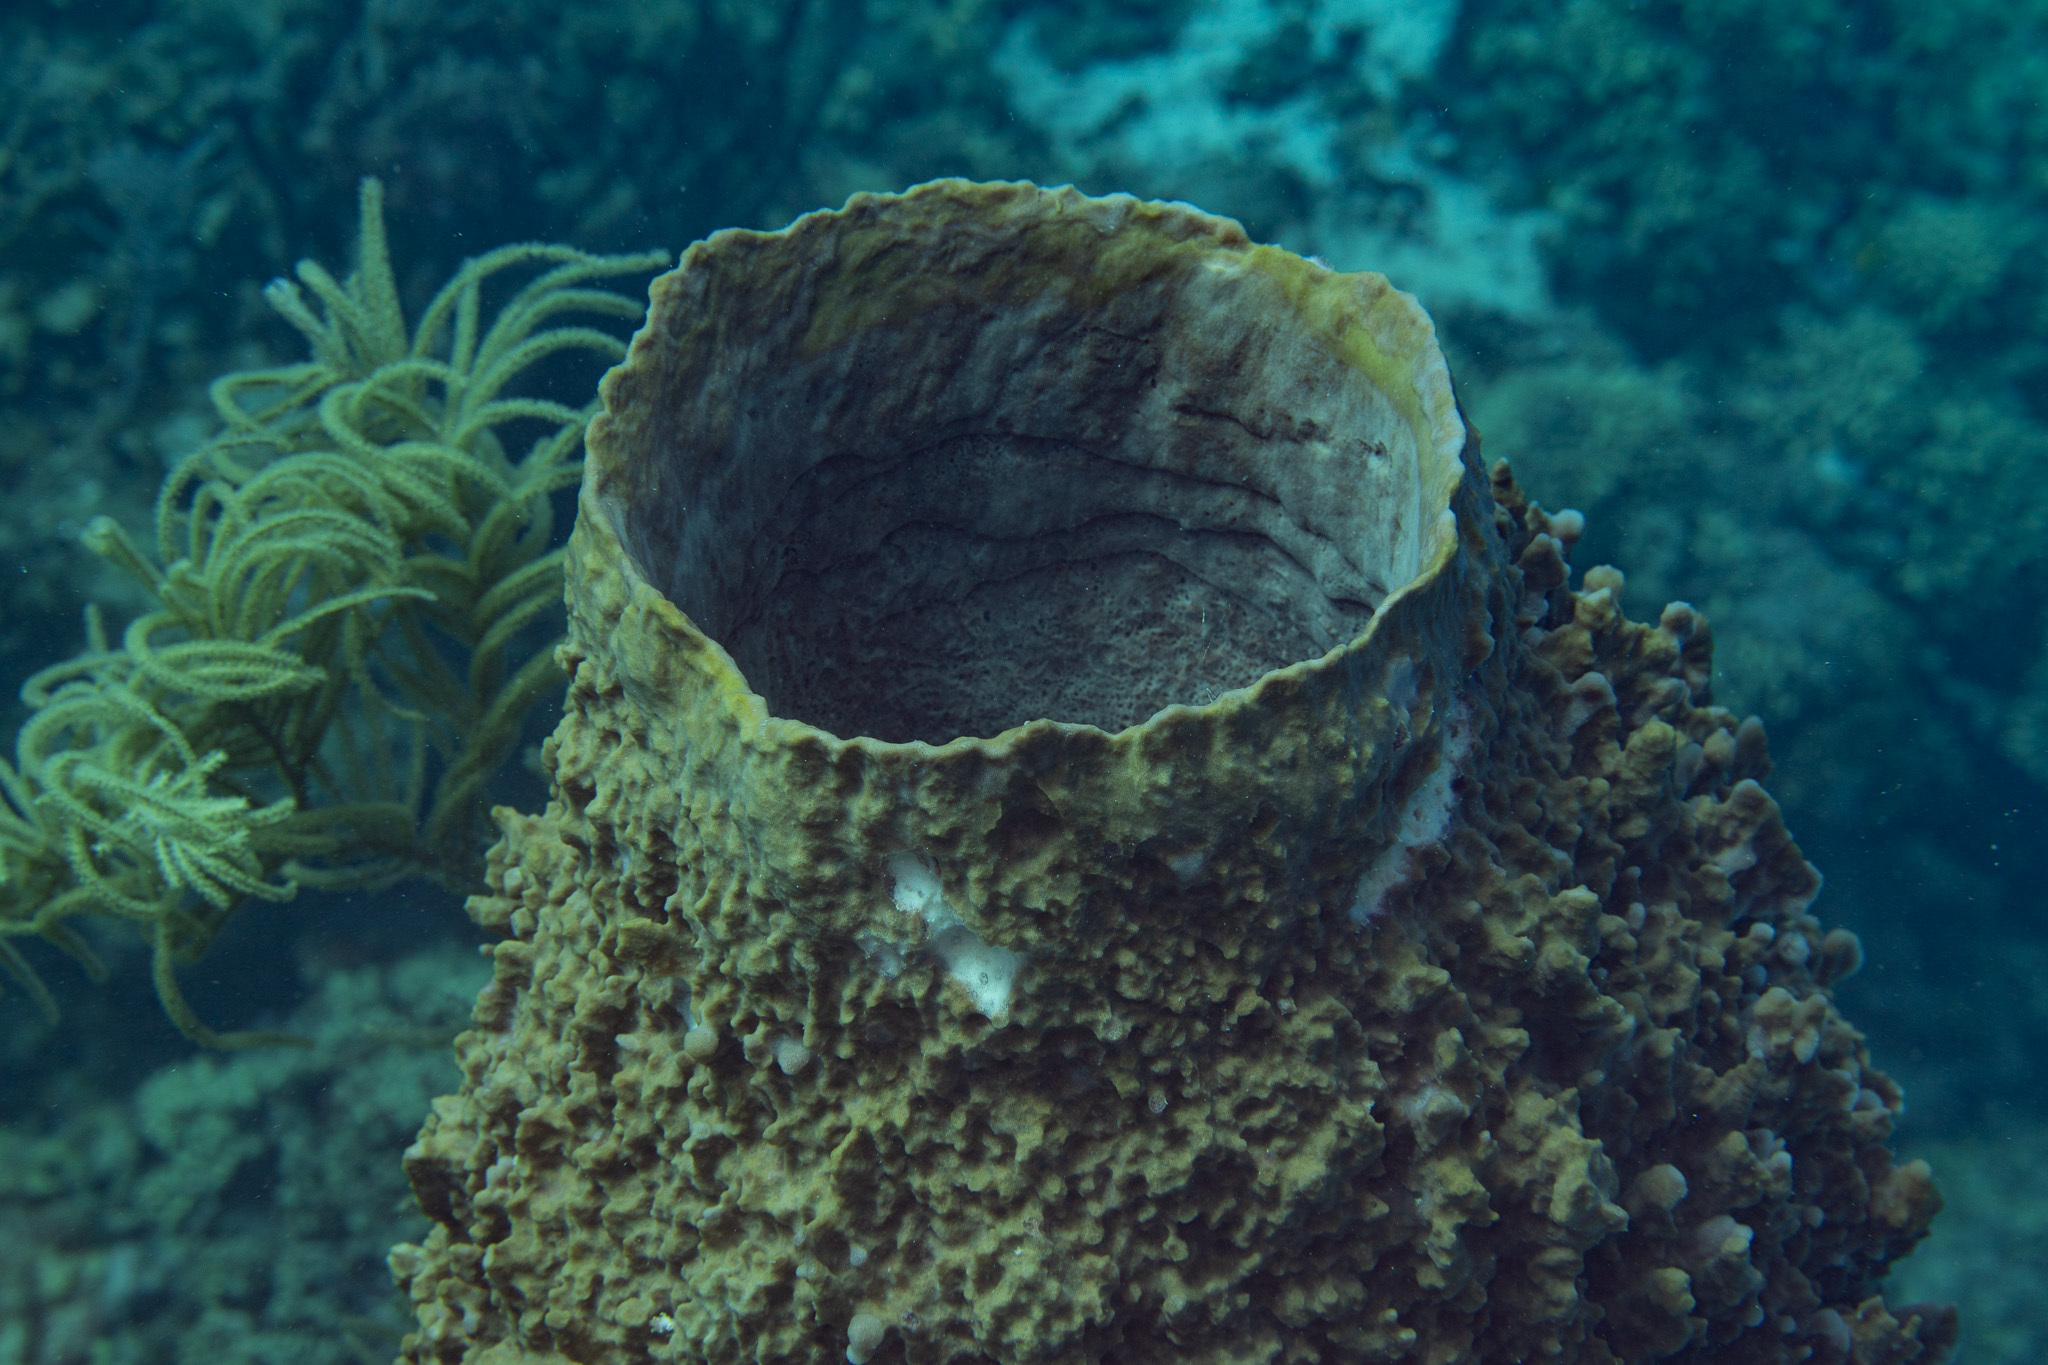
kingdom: Animalia
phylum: Porifera
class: Demospongiae
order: Haplosclerida
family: Petrosiidae
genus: Xestospongia
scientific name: Xestospongia muta
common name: Giant barrel sponge
